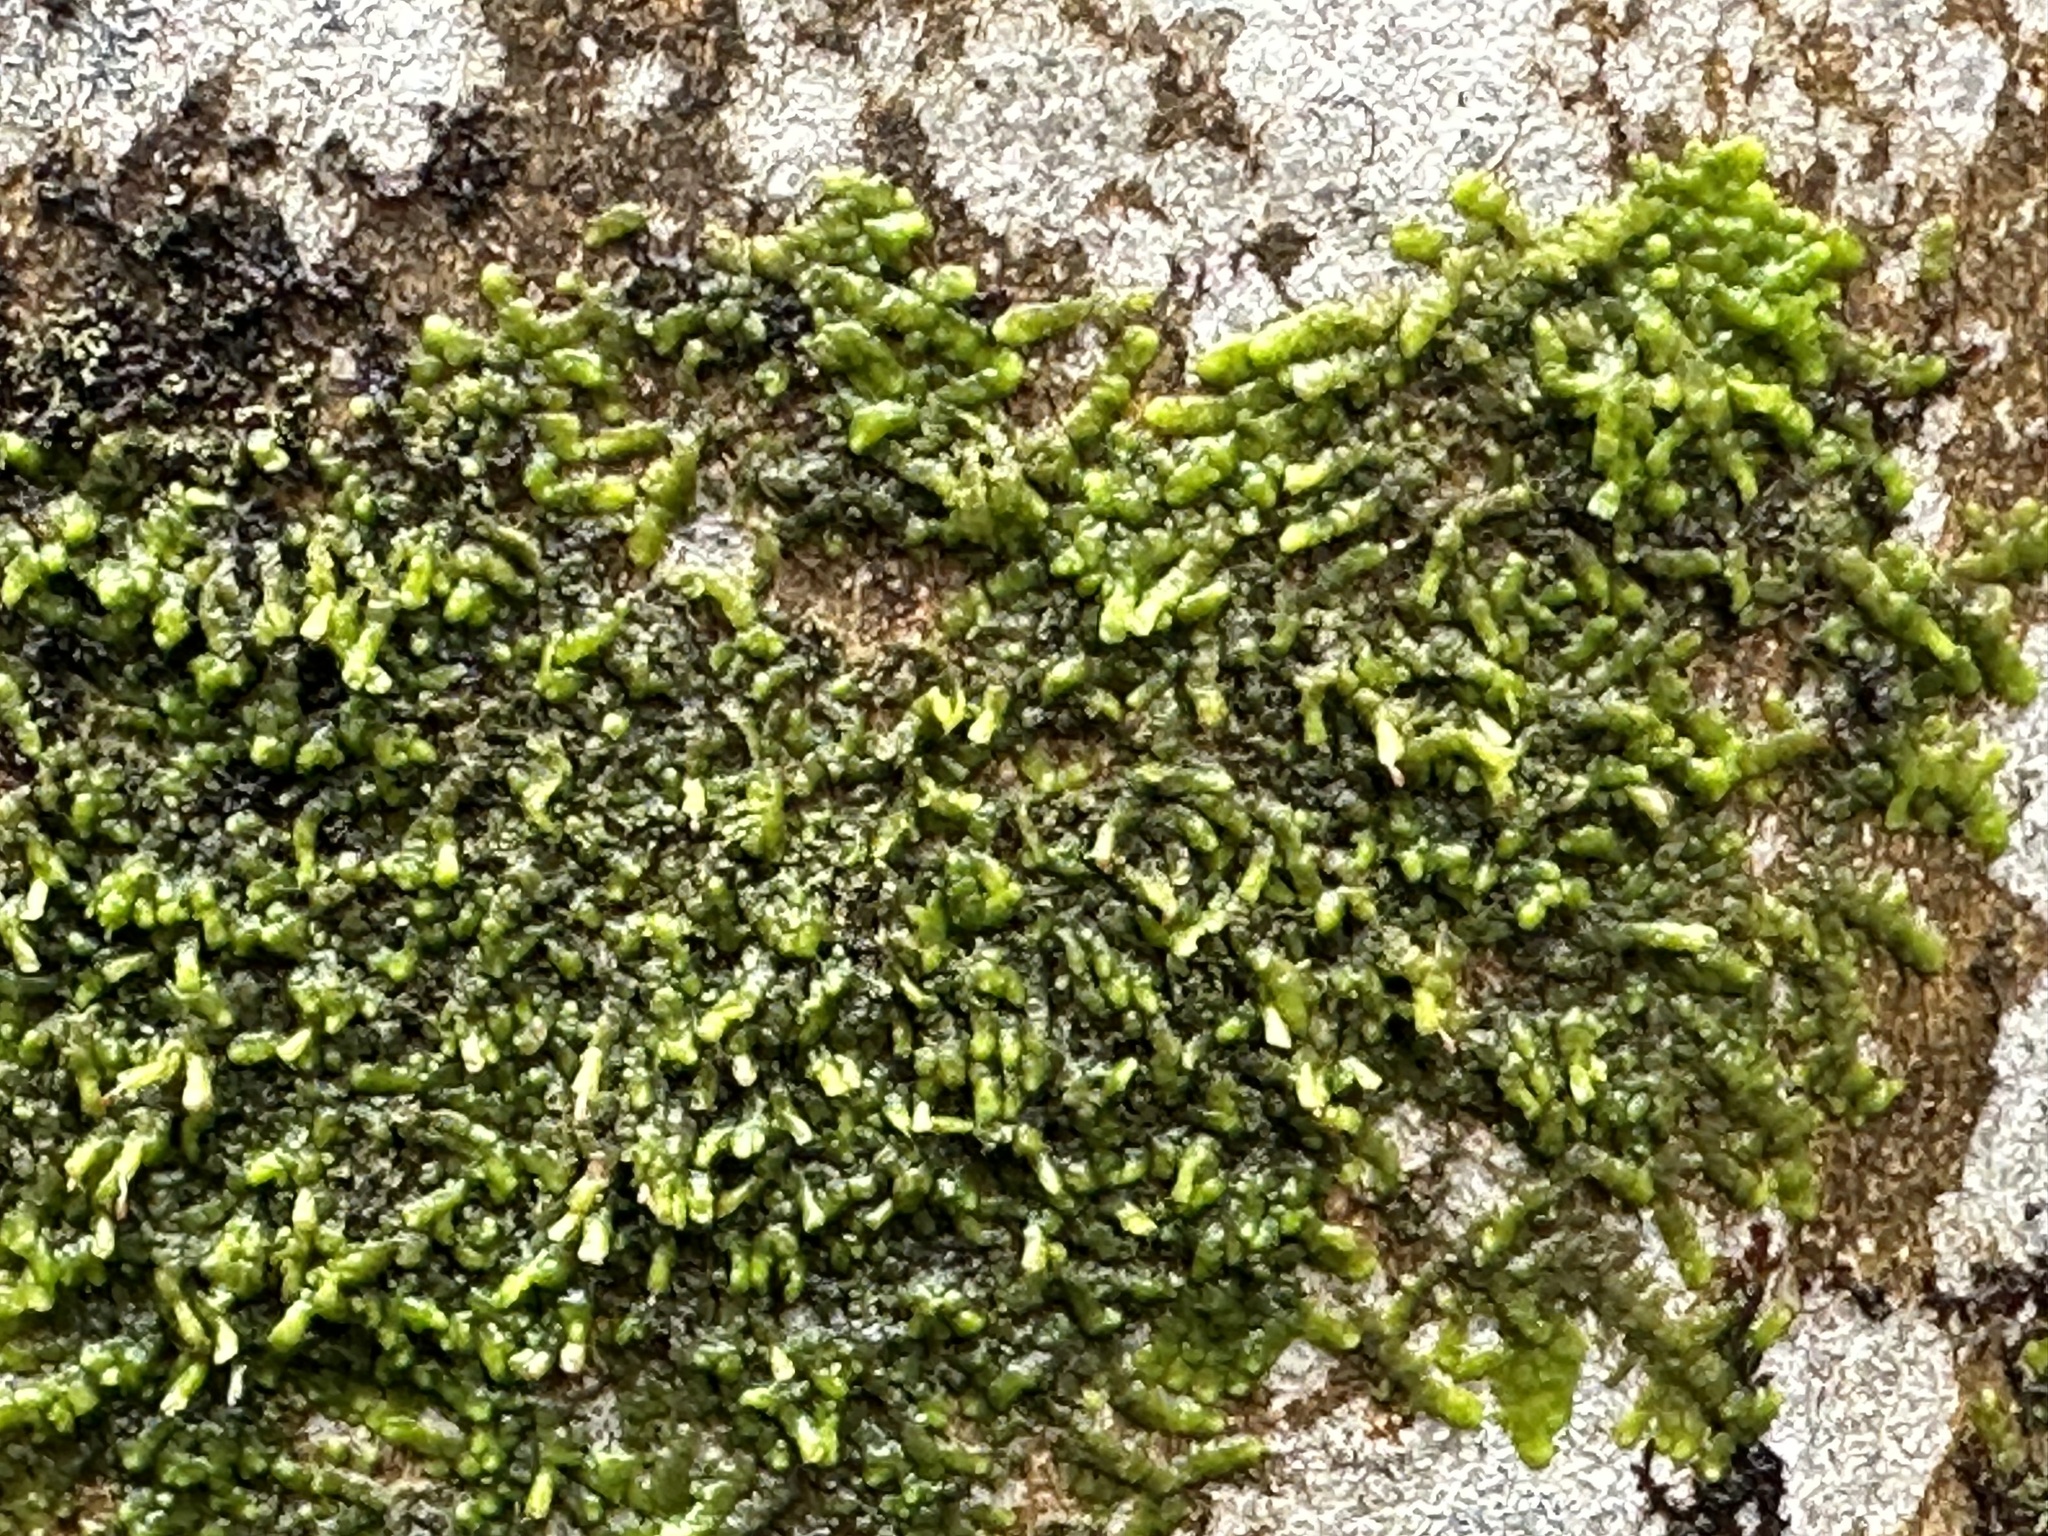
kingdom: Plantae
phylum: Marchantiophyta
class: Jungermanniopsida
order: Porellales
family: Radulaceae
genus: Radula
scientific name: Radula complanata
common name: Flat-leaved scalewort
